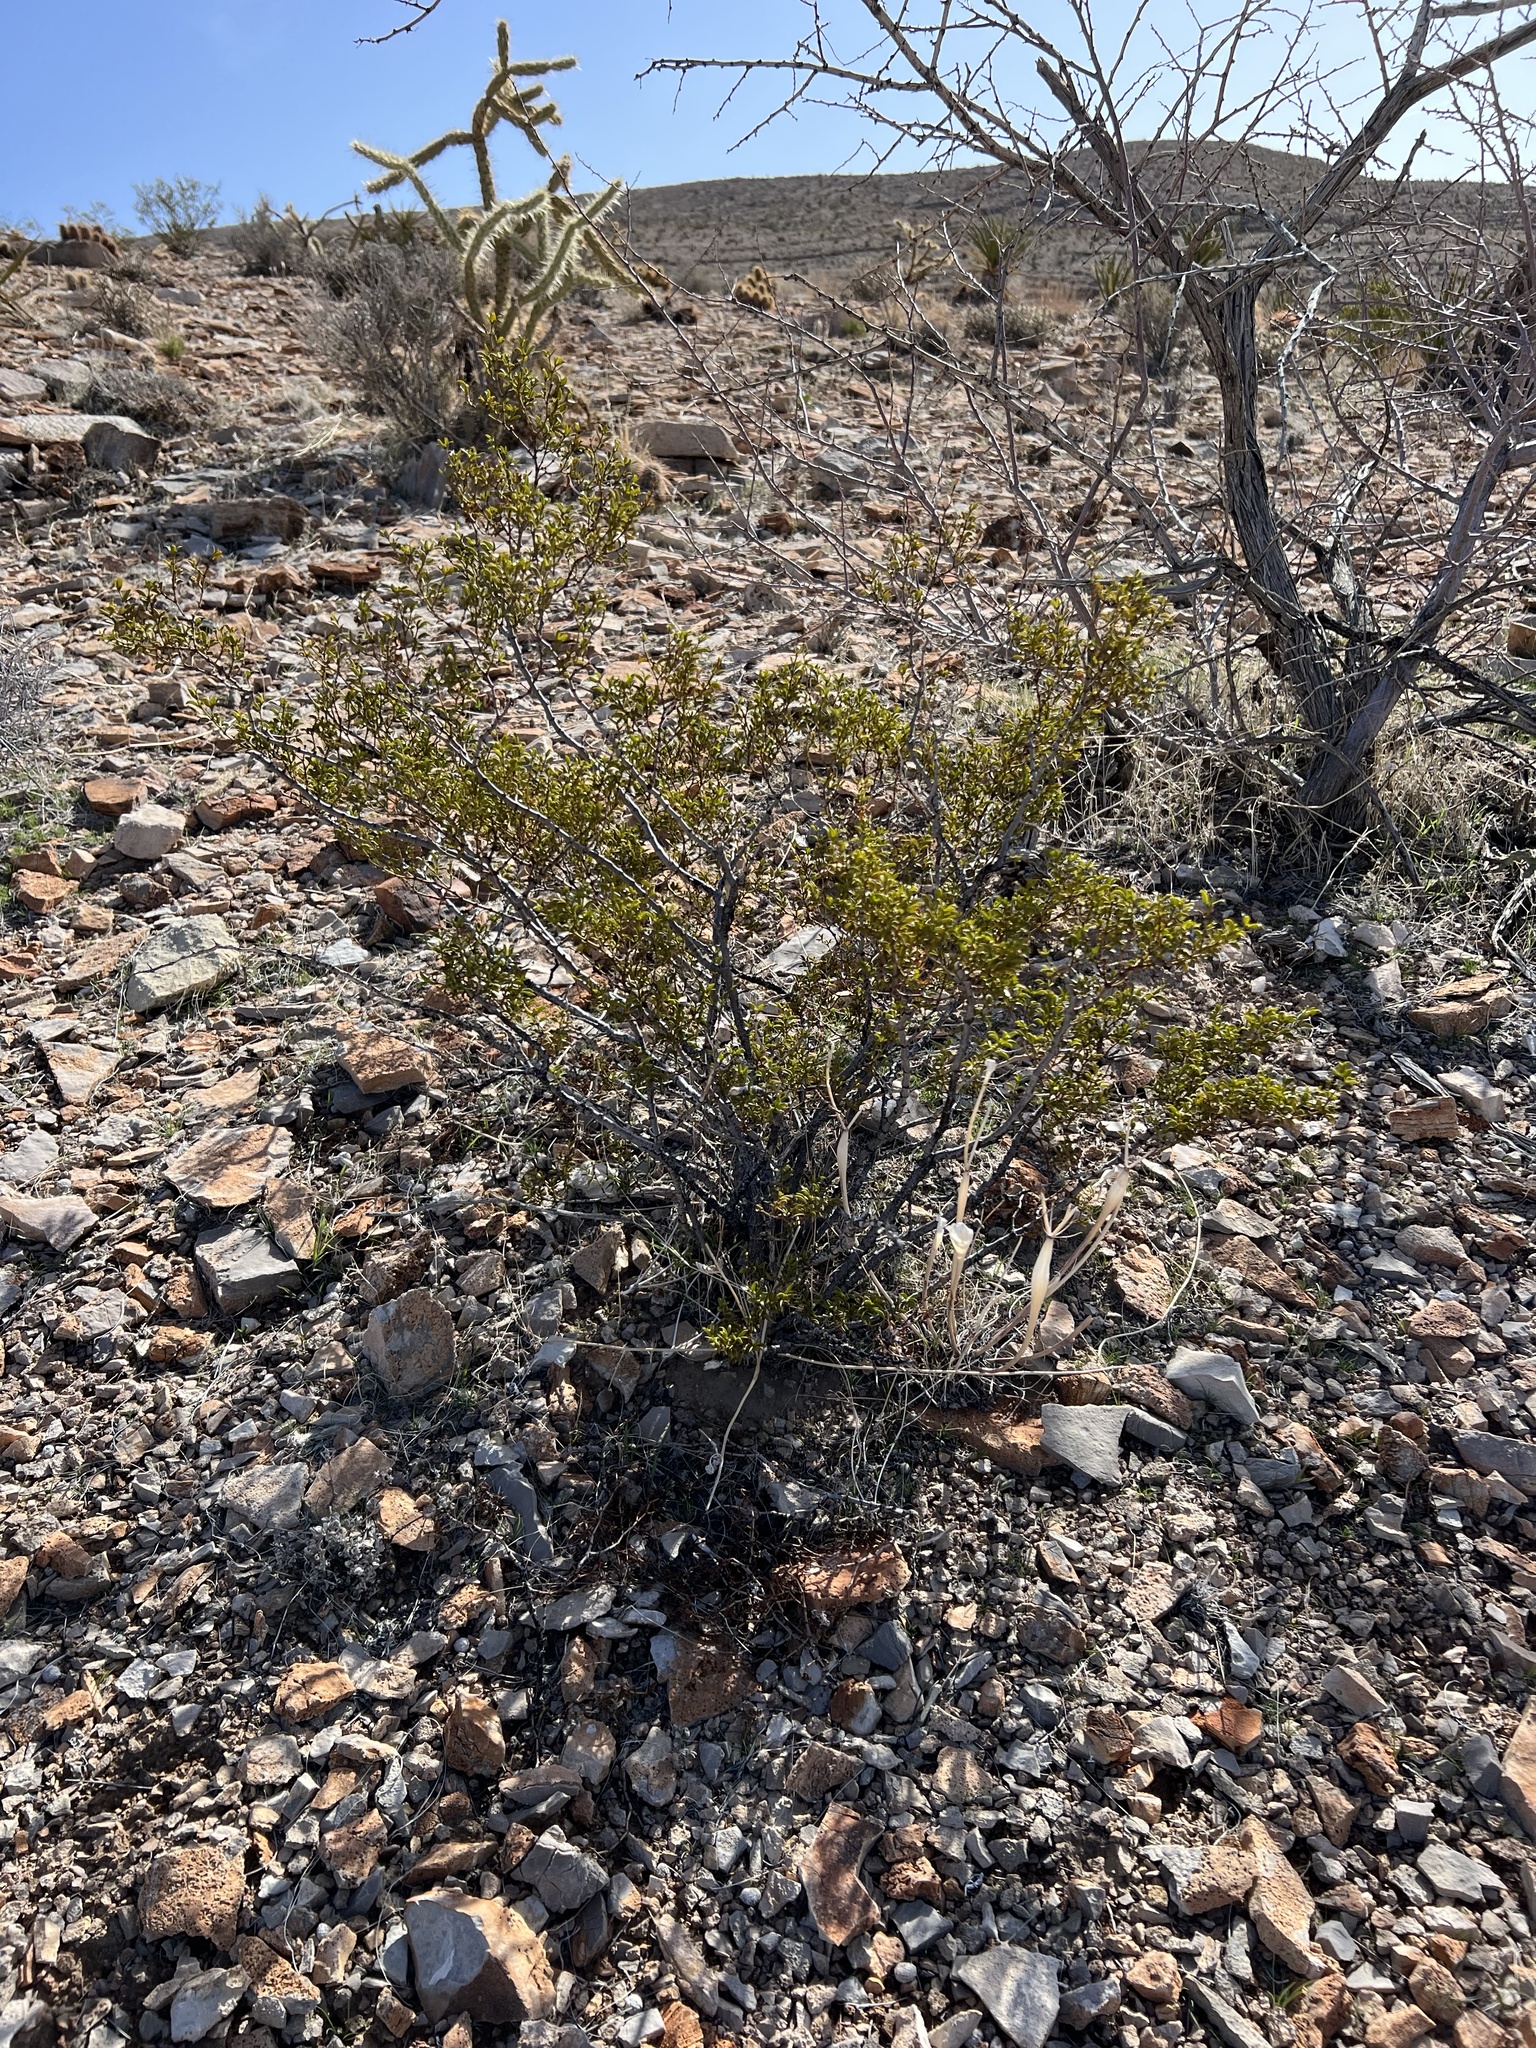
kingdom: Plantae
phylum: Tracheophyta
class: Magnoliopsida
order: Zygophyllales
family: Zygophyllaceae
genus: Larrea
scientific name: Larrea tridentata
